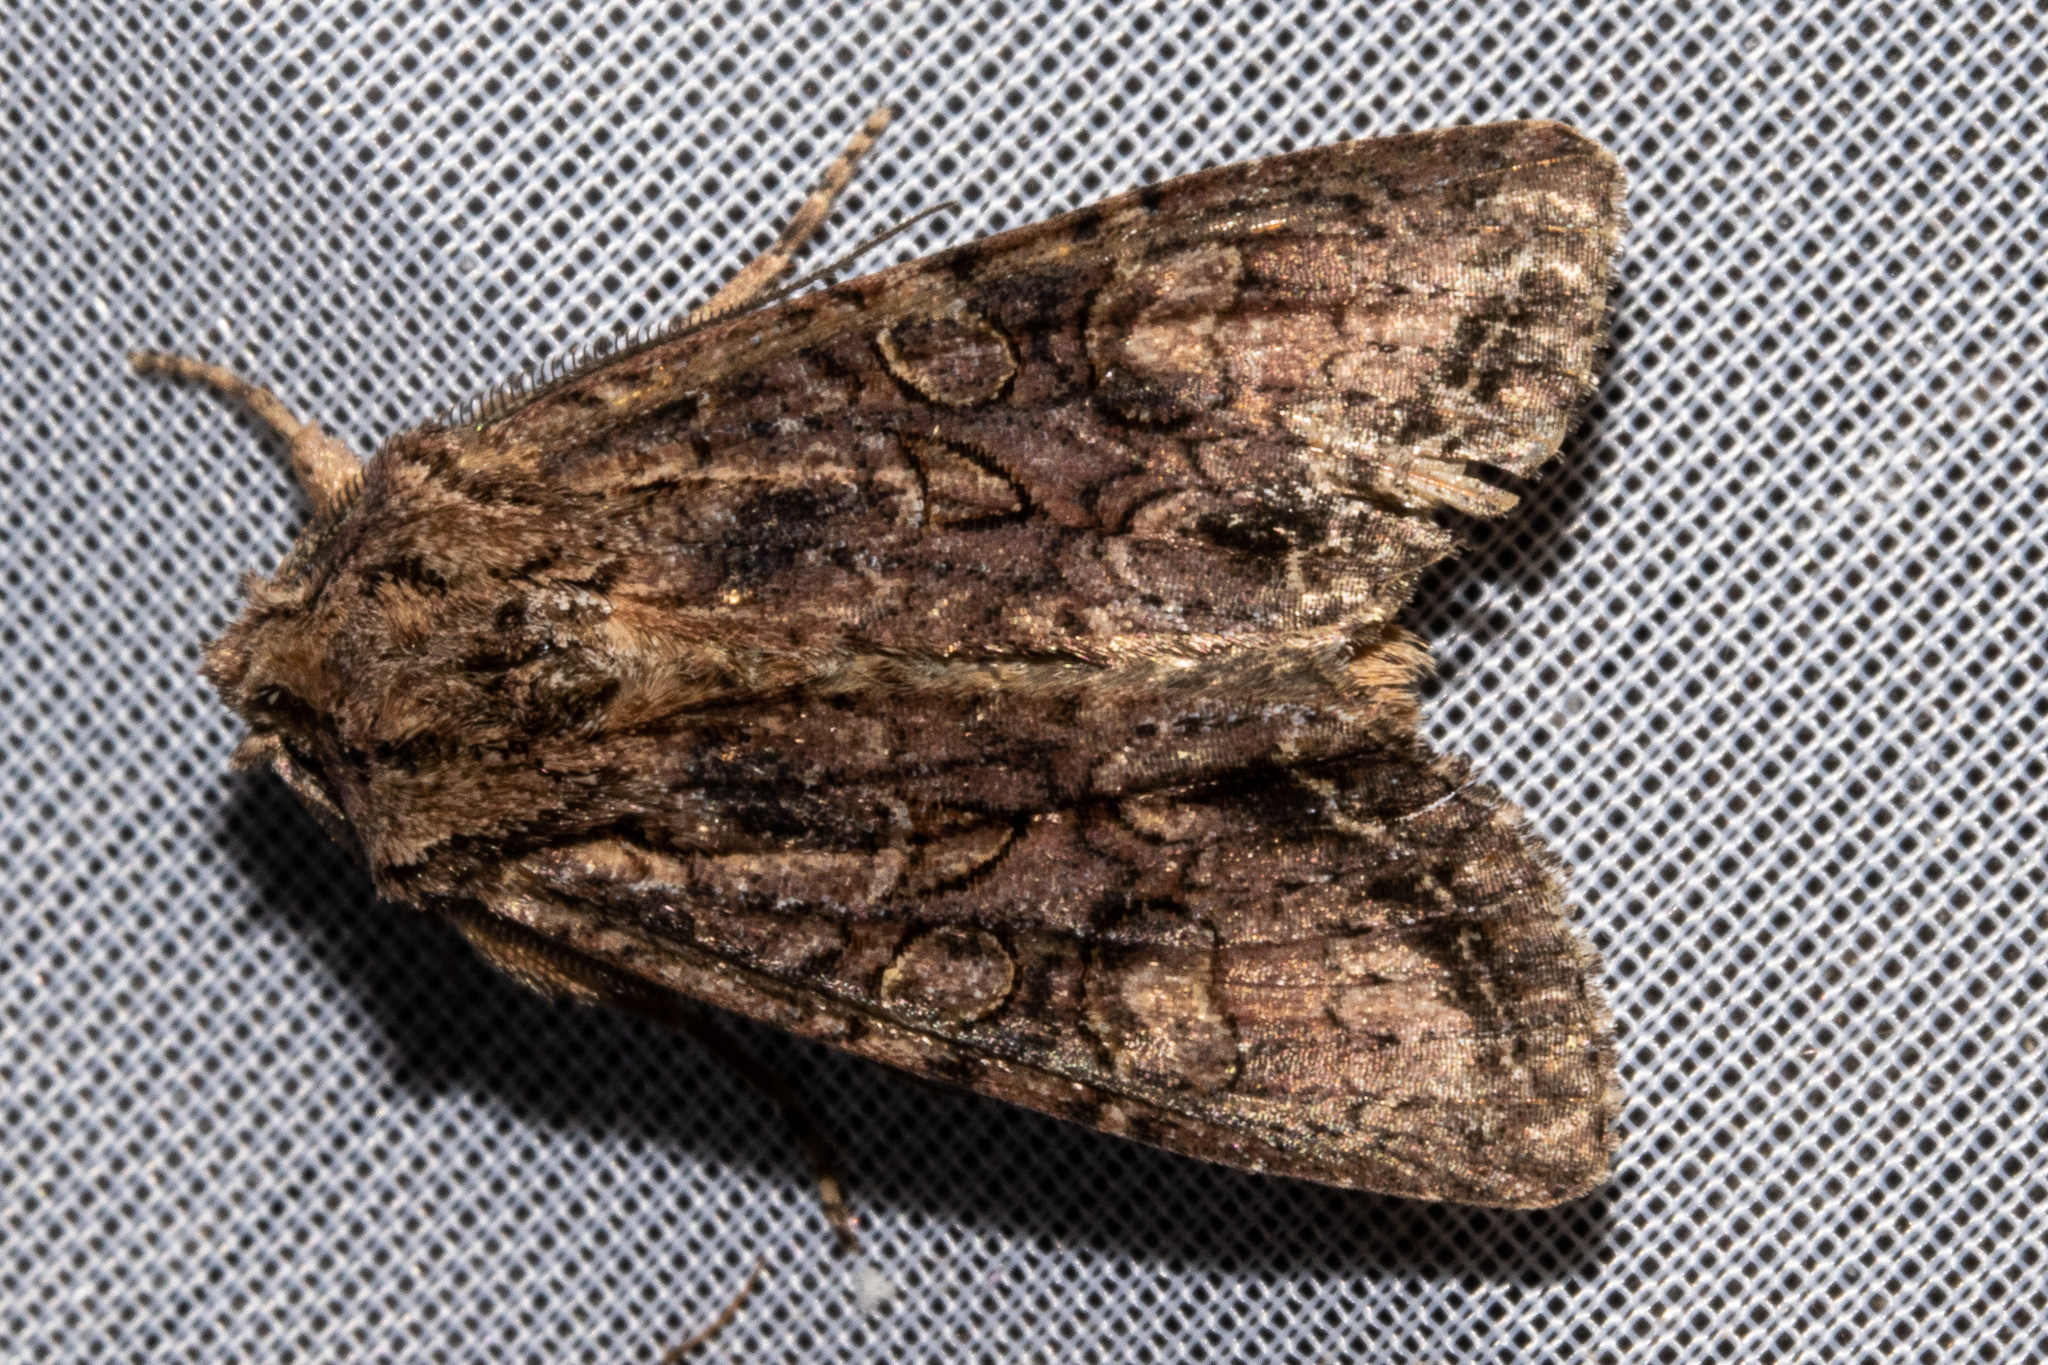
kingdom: Animalia
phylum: Arthropoda
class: Insecta
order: Lepidoptera
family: Noctuidae
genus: Ichneutica
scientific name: Ichneutica mutans
